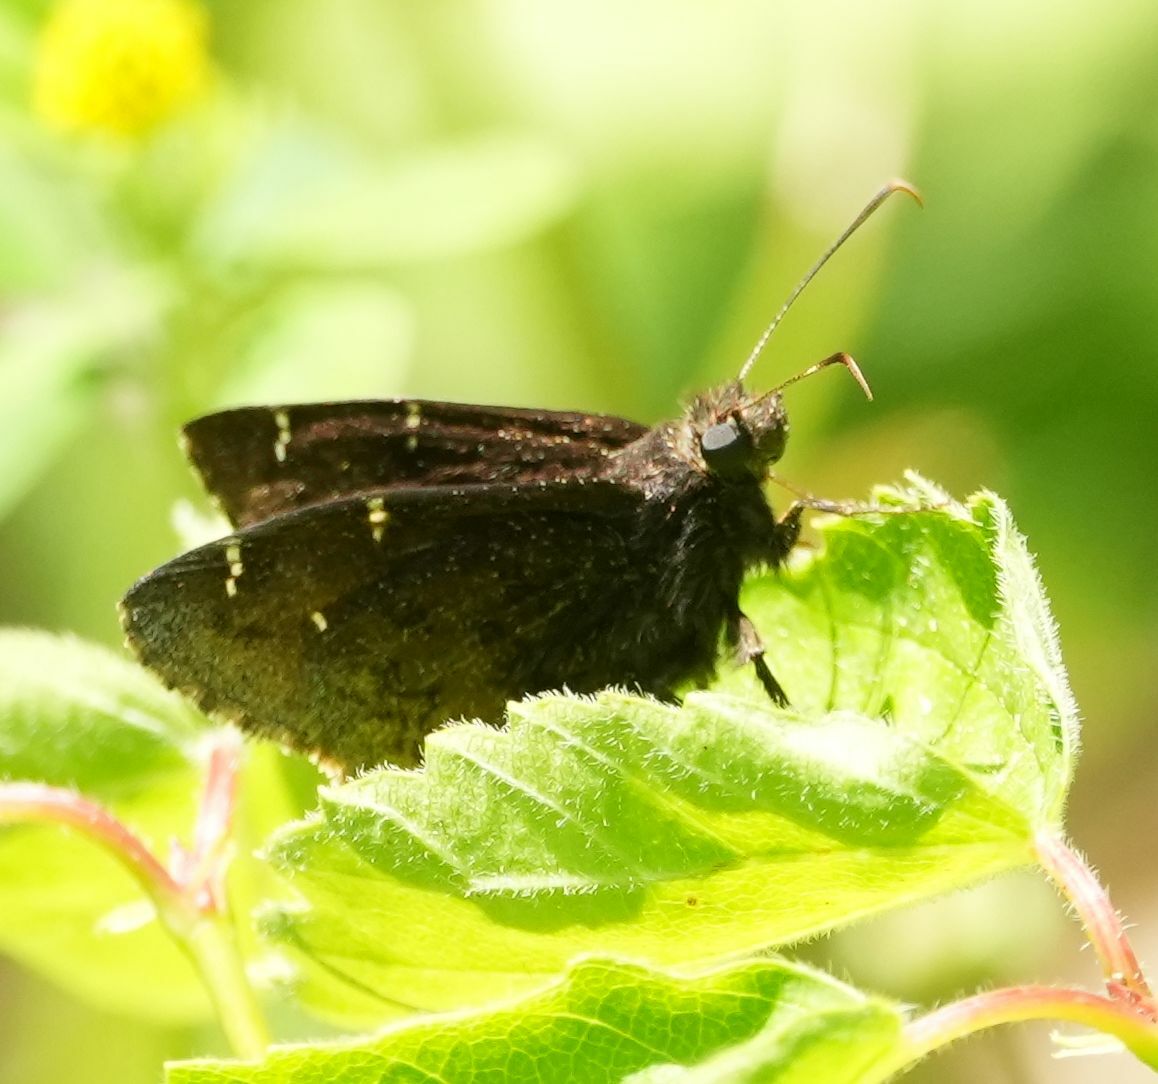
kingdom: Animalia
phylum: Arthropoda
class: Insecta
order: Lepidoptera
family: Hesperiidae
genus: Thorybes
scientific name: Thorybes pylades
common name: Northern cloudywing
